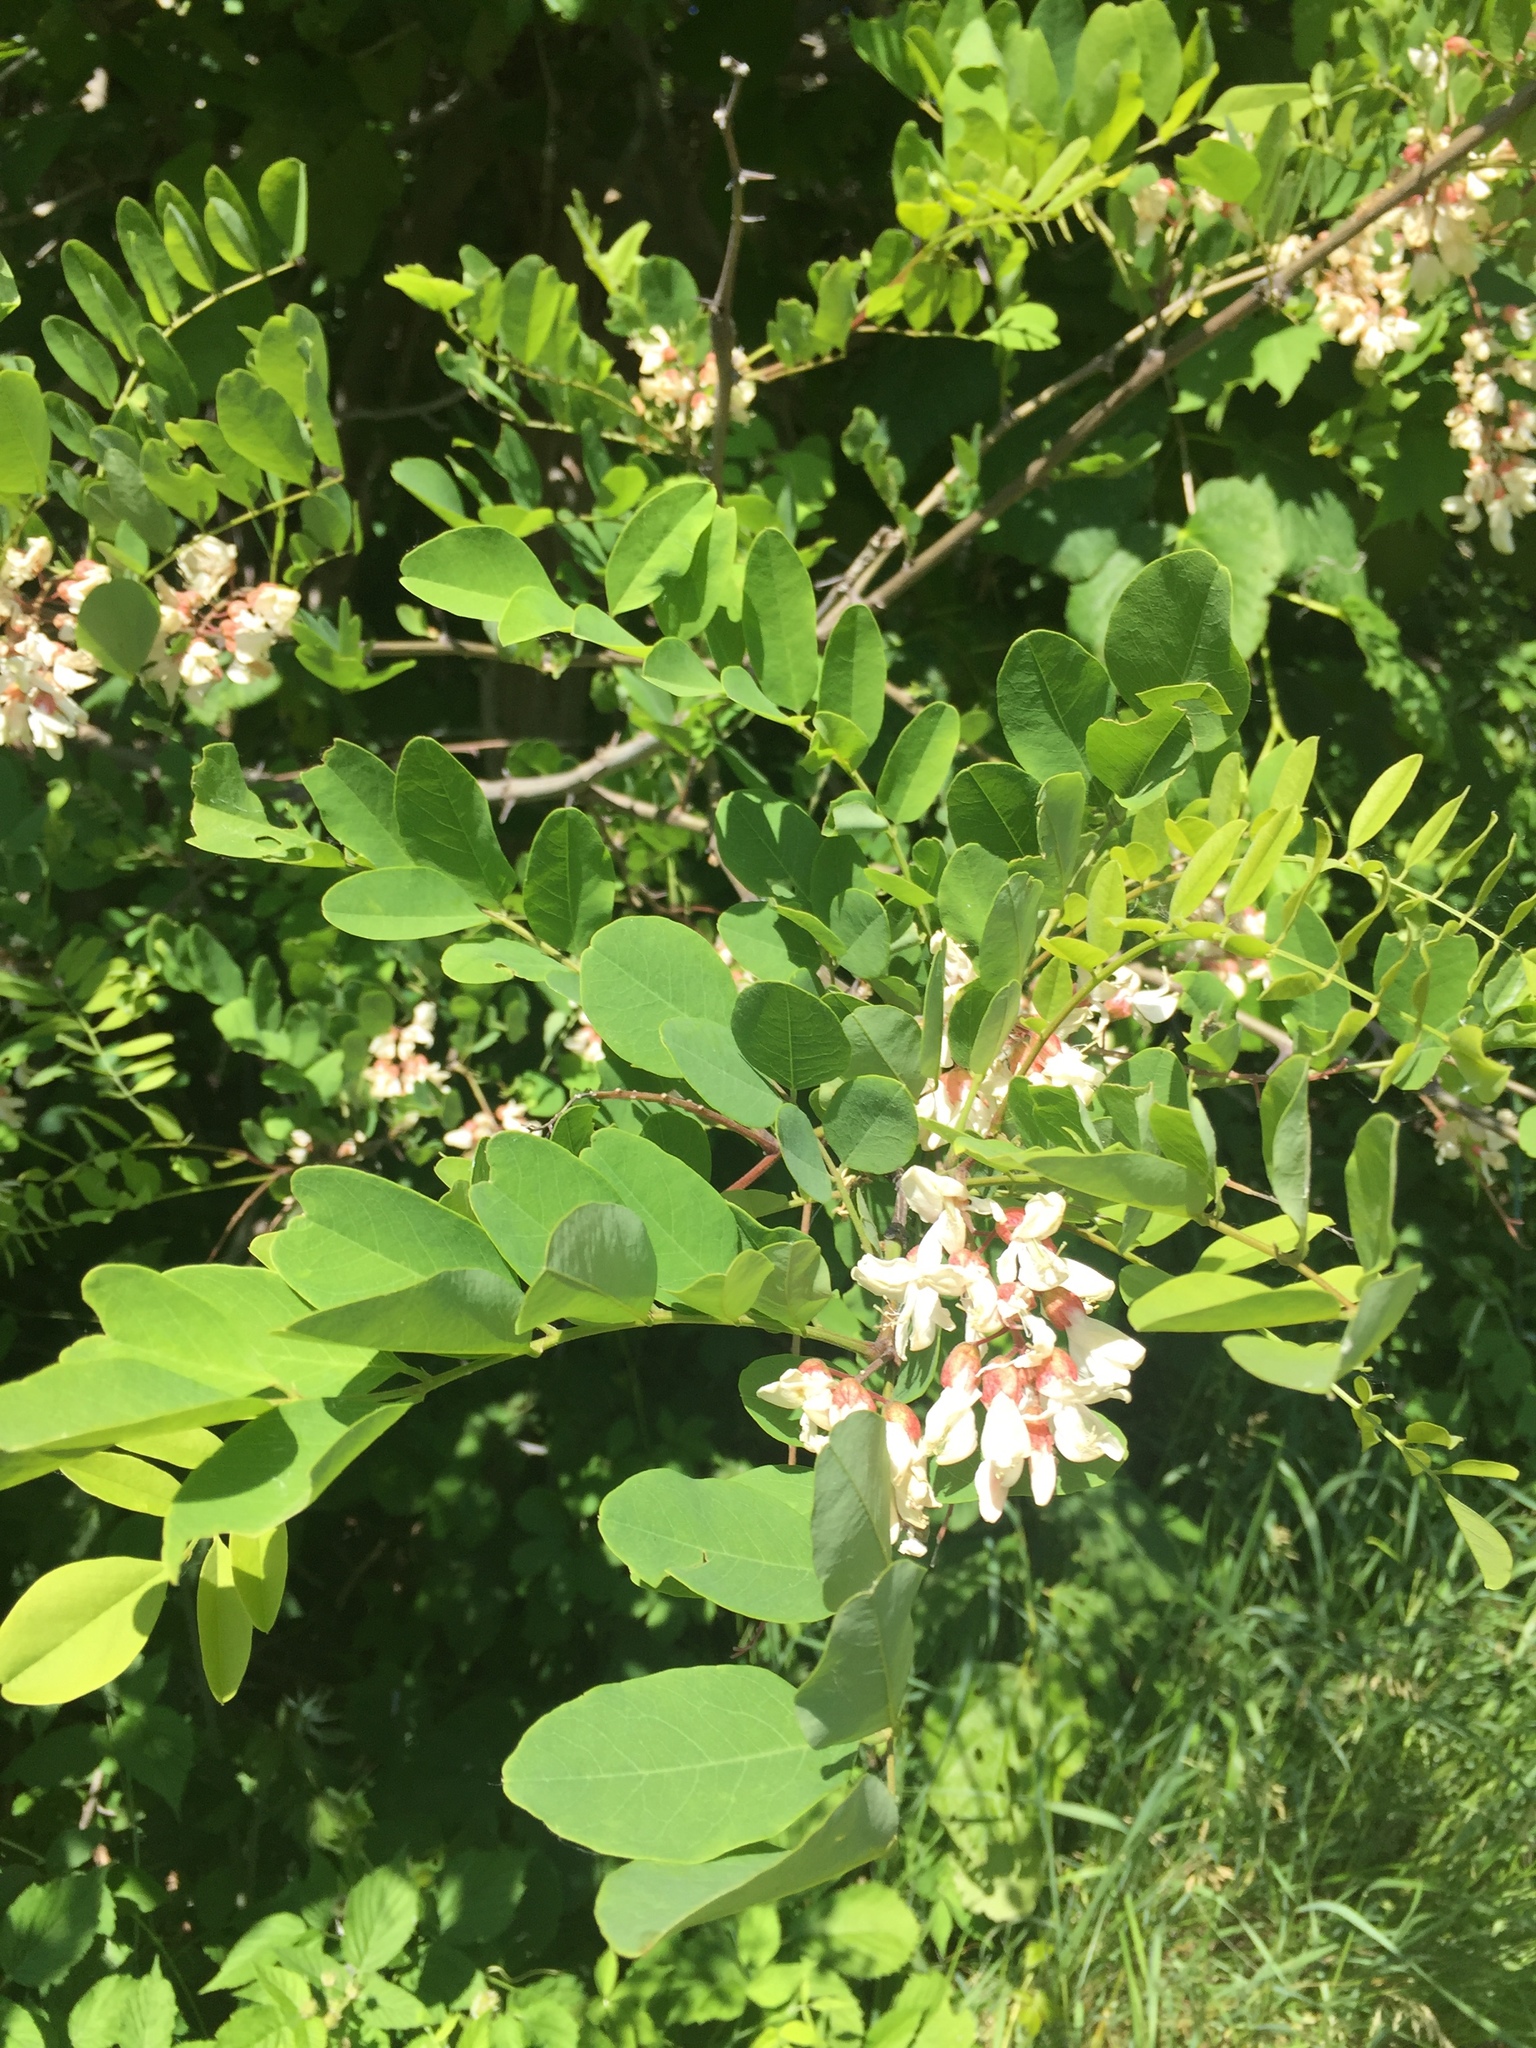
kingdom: Plantae
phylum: Tracheophyta
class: Magnoliopsida
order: Fabales
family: Fabaceae
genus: Robinia
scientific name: Robinia pseudoacacia
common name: Black locust
